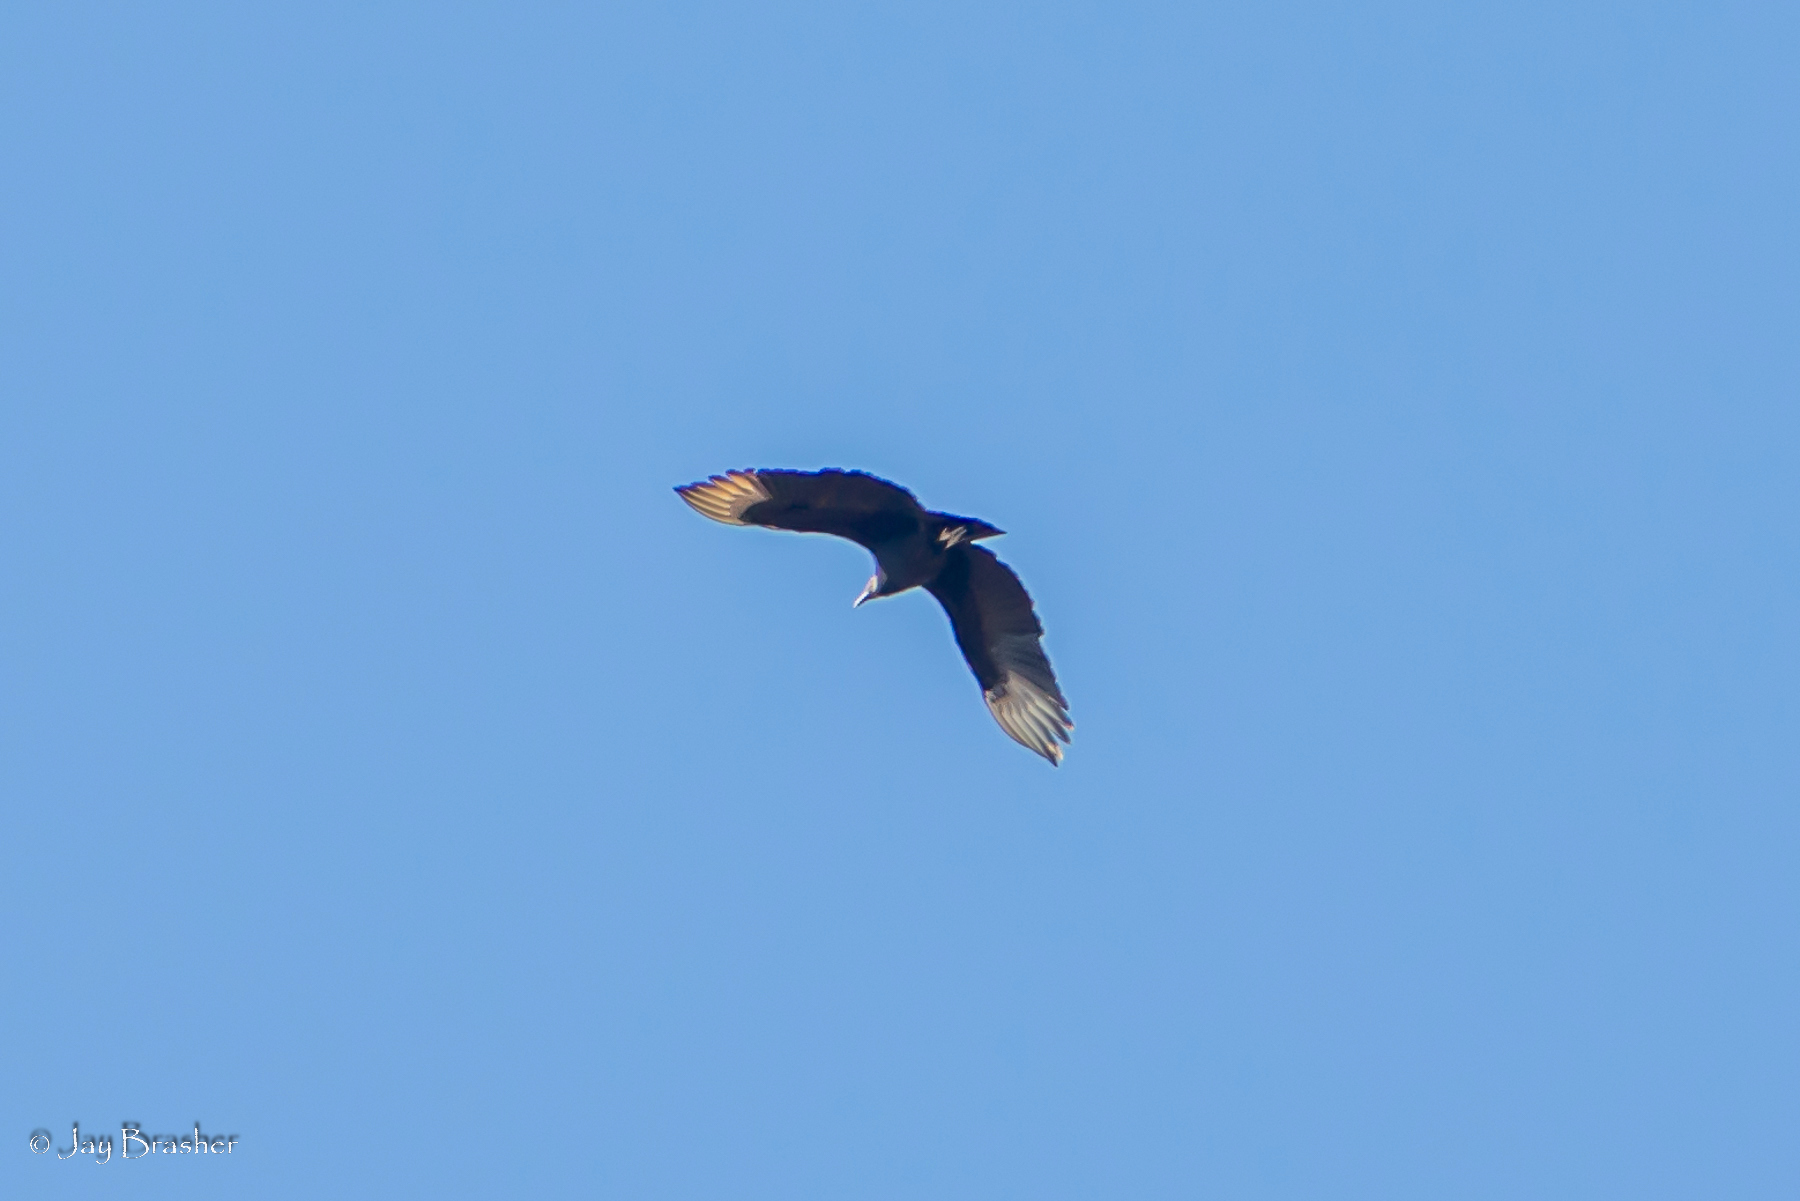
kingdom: Animalia
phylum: Chordata
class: Aves
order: Accipitriformes
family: Cathartidae
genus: Coragyps
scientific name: Coragyps atratus
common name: Black vulture
